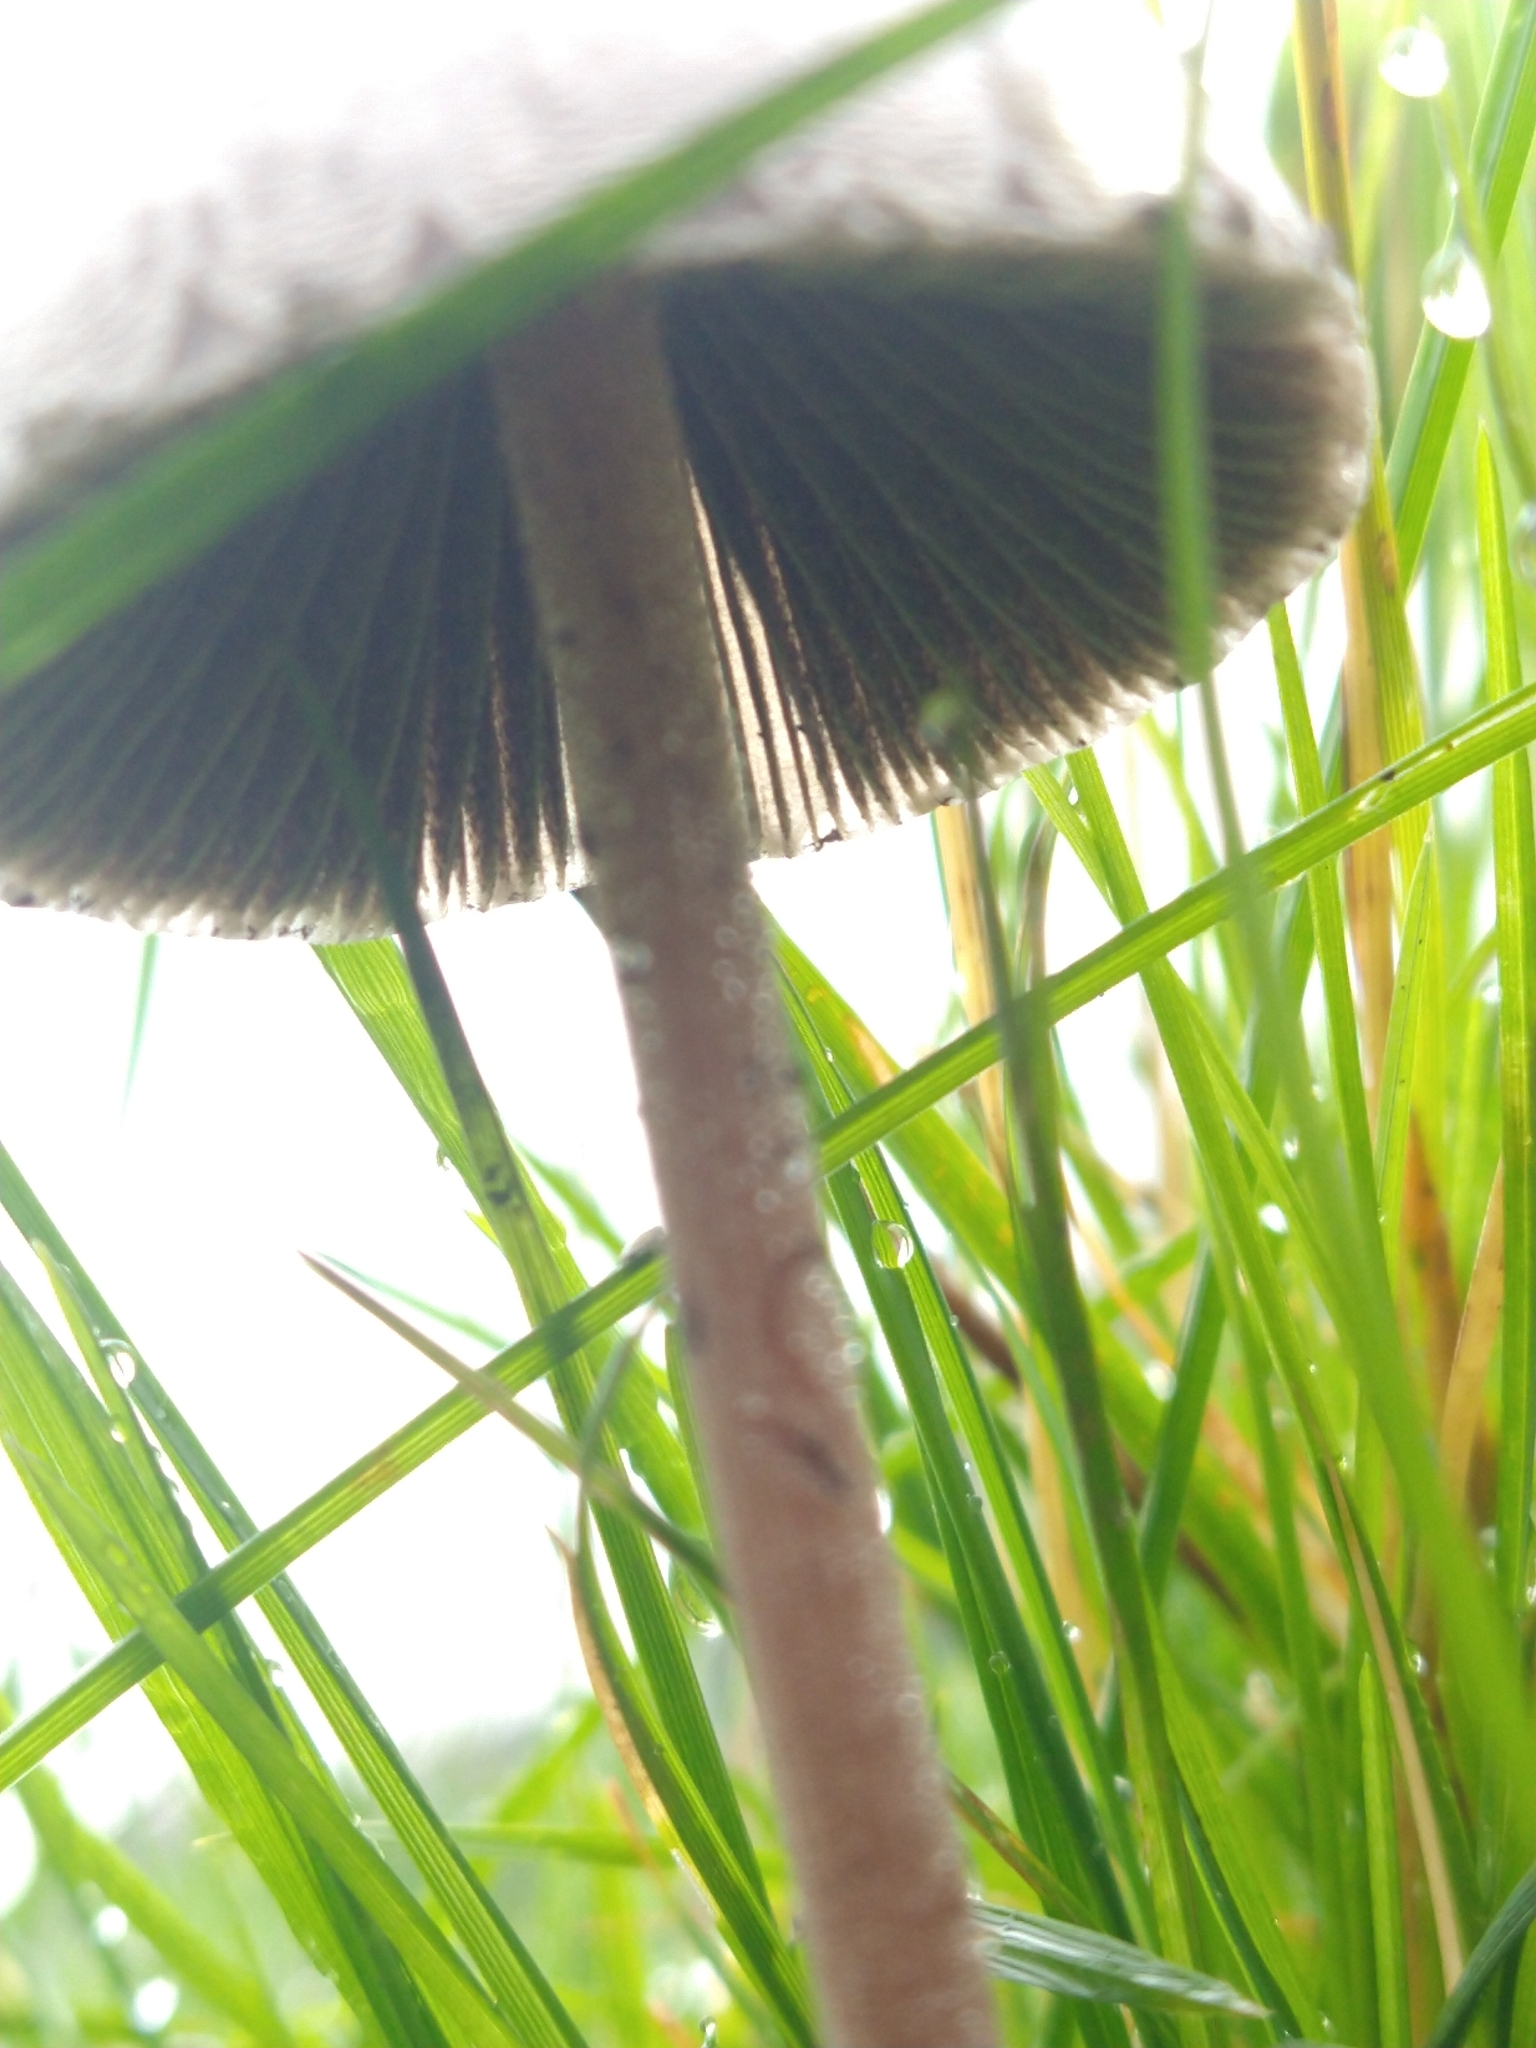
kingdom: Fungi
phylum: Basidiomycota
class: Agaricomycetes
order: Agaricales
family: Bolbitiaceae
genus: Panaeolus
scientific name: Panaeolus papilionaceus
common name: Petticoat mottlegill
